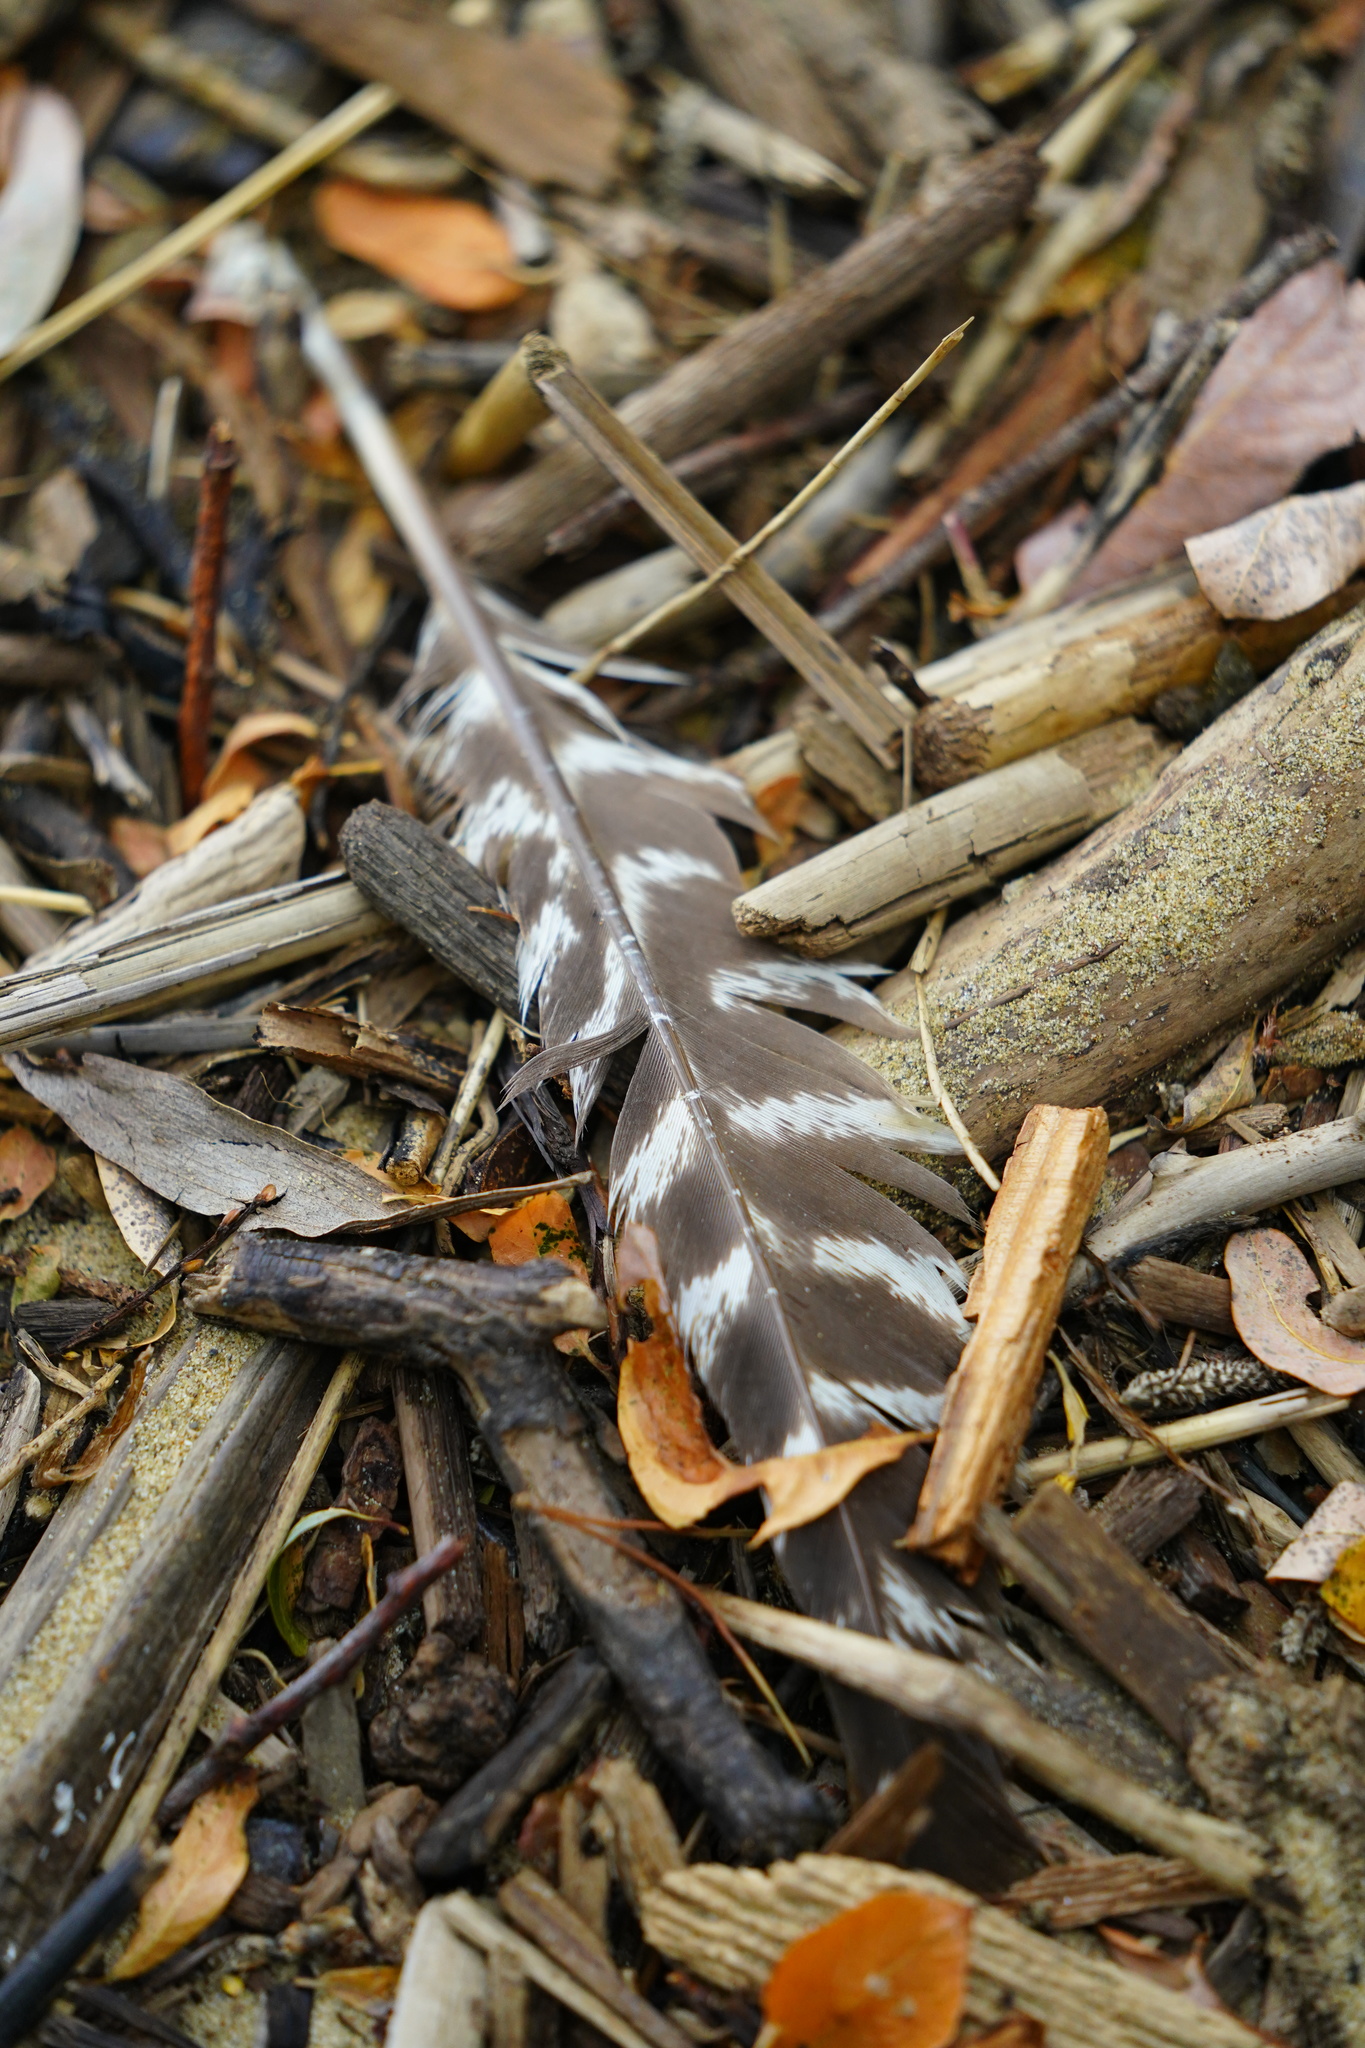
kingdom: Animalia
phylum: Chordata
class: Aves
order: Galliformes
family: Phasianidae
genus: Meleagris
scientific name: Meleagris gallopavo
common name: Wild turkey
